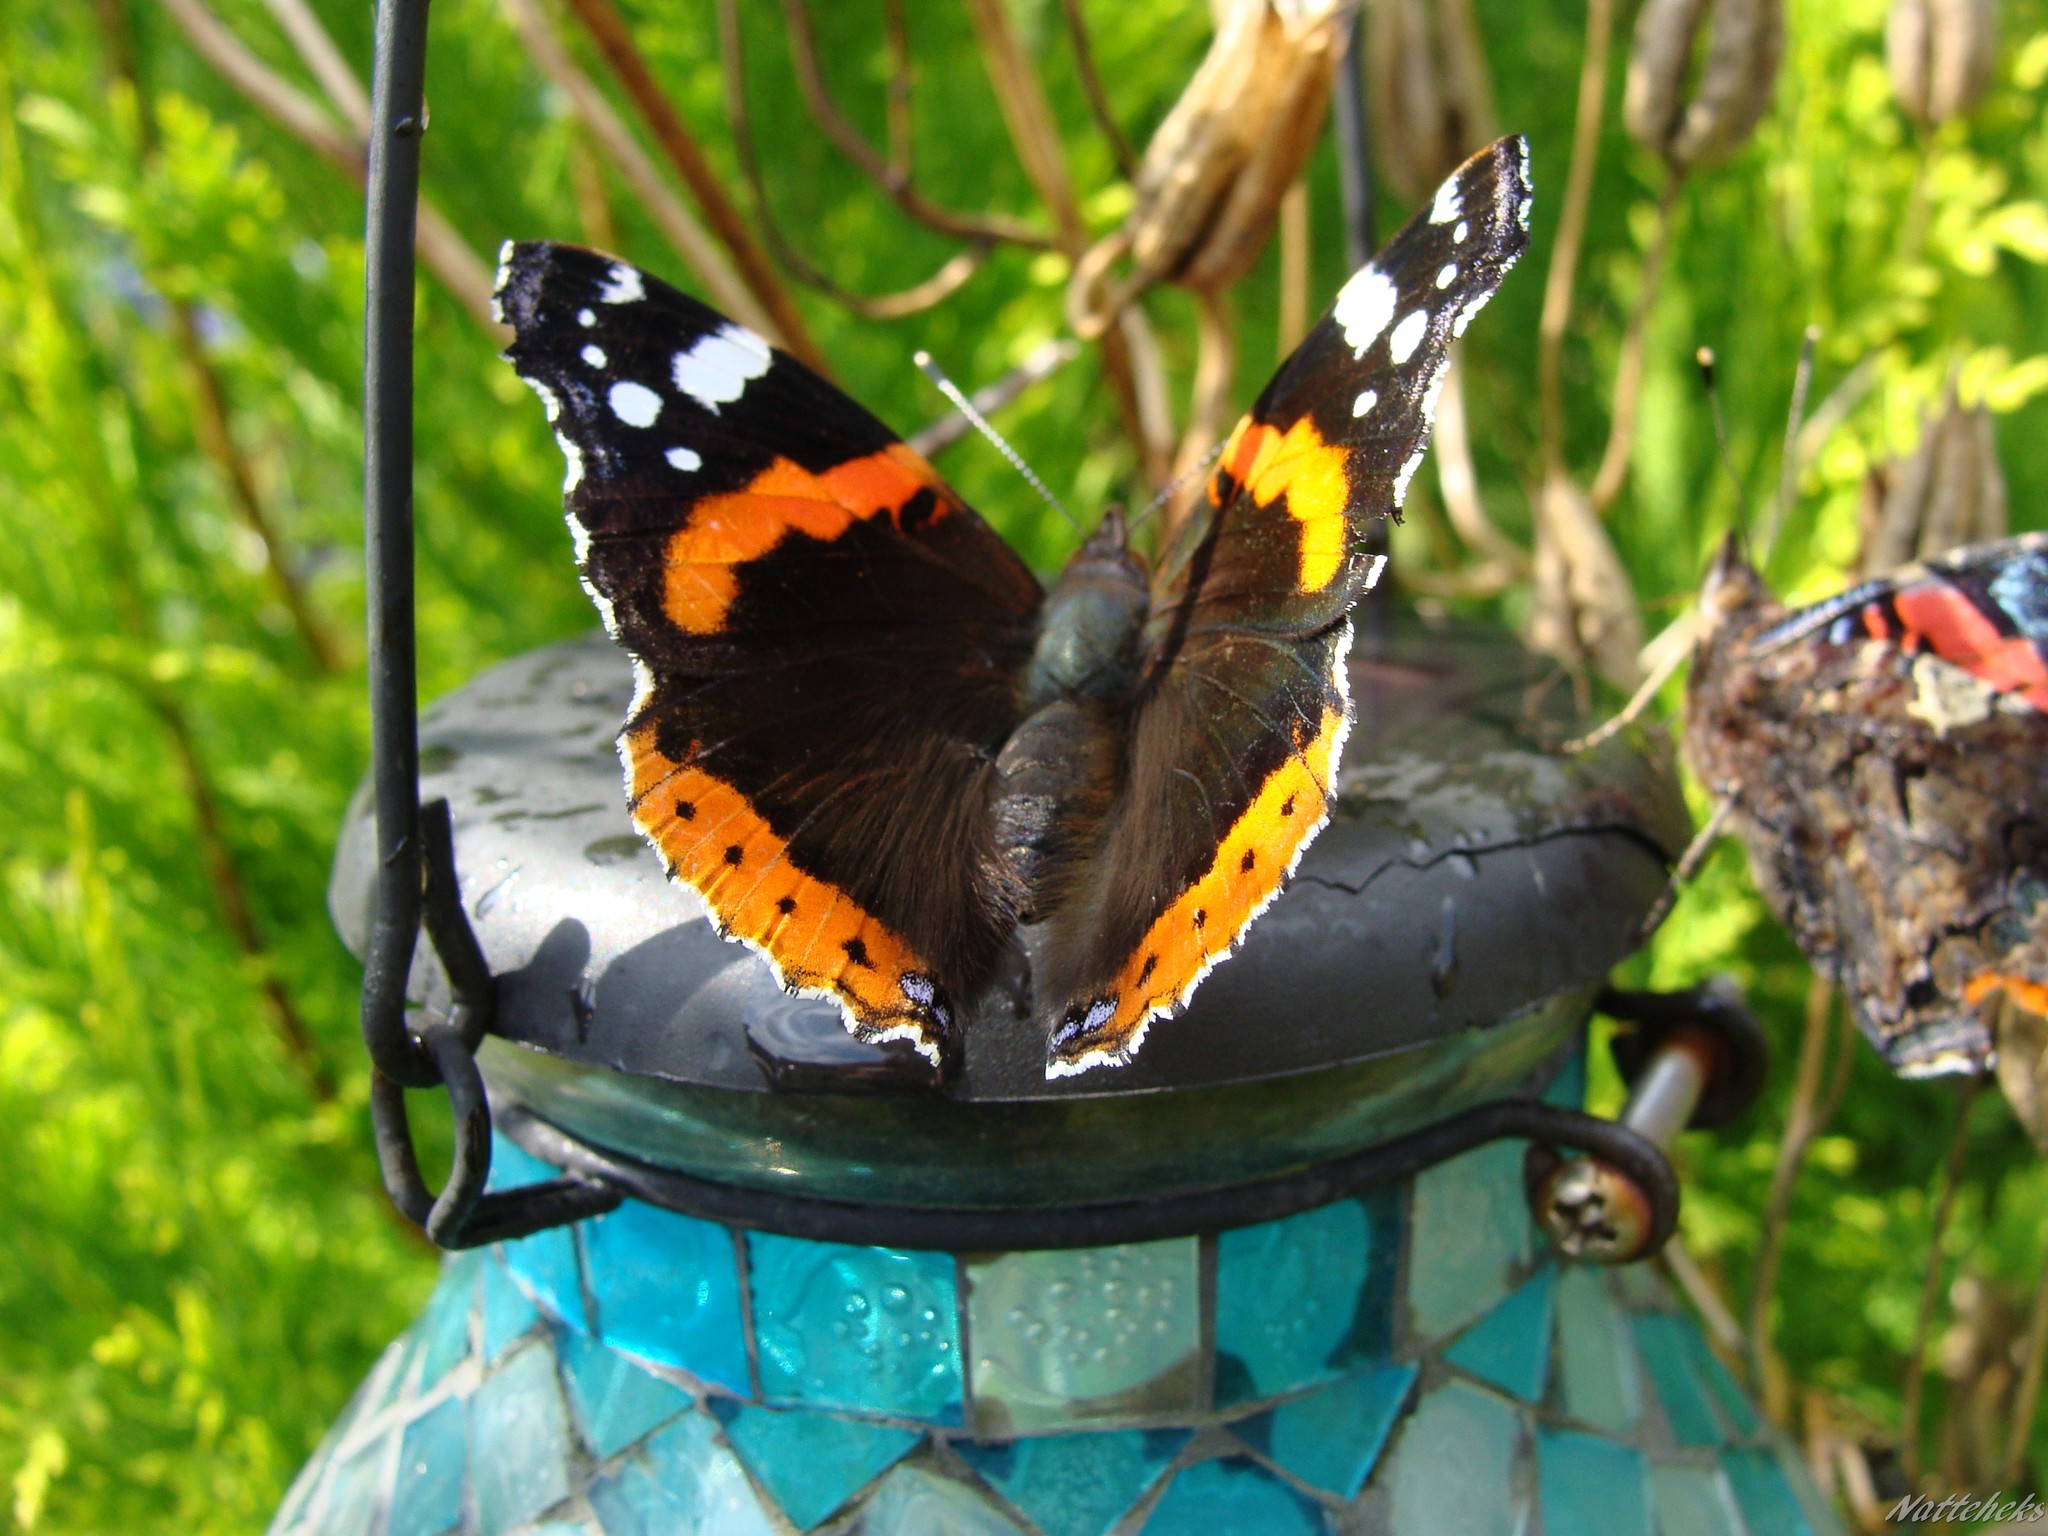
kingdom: Animalia
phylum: Arthropoda
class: Insecta
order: Lepidoptera
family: Nymphalidae
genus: Vanessa
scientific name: Vanessa atalanta
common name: Red admiral
